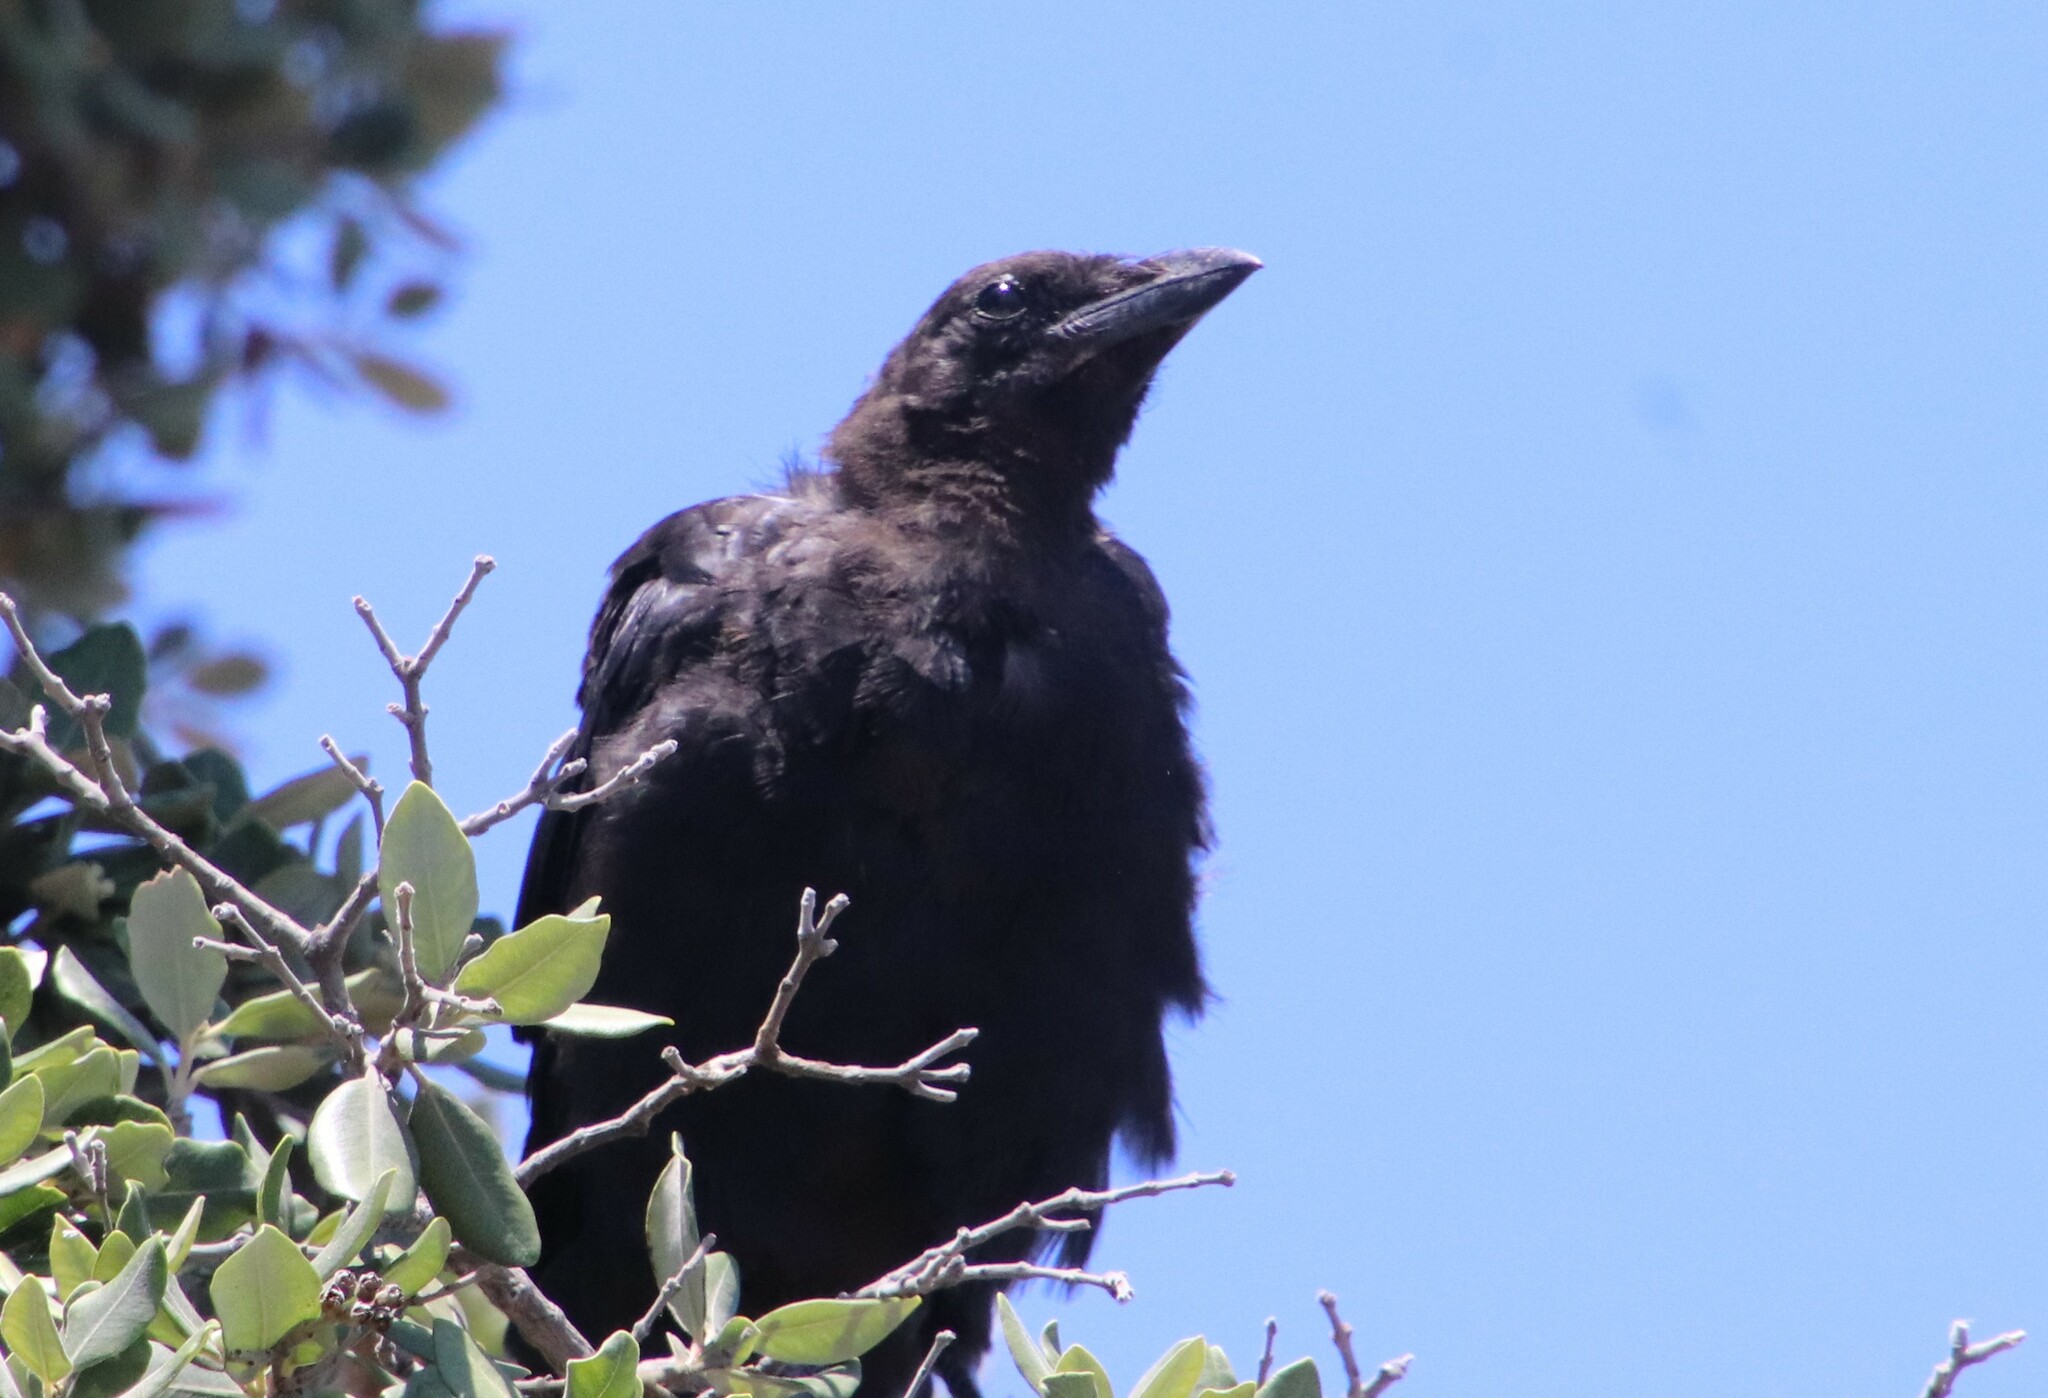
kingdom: Animalia
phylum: Chordata
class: Aves
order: Passeriformes
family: Corvidae
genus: Corvus
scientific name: Corvus brachyrhynchos
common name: American crow
